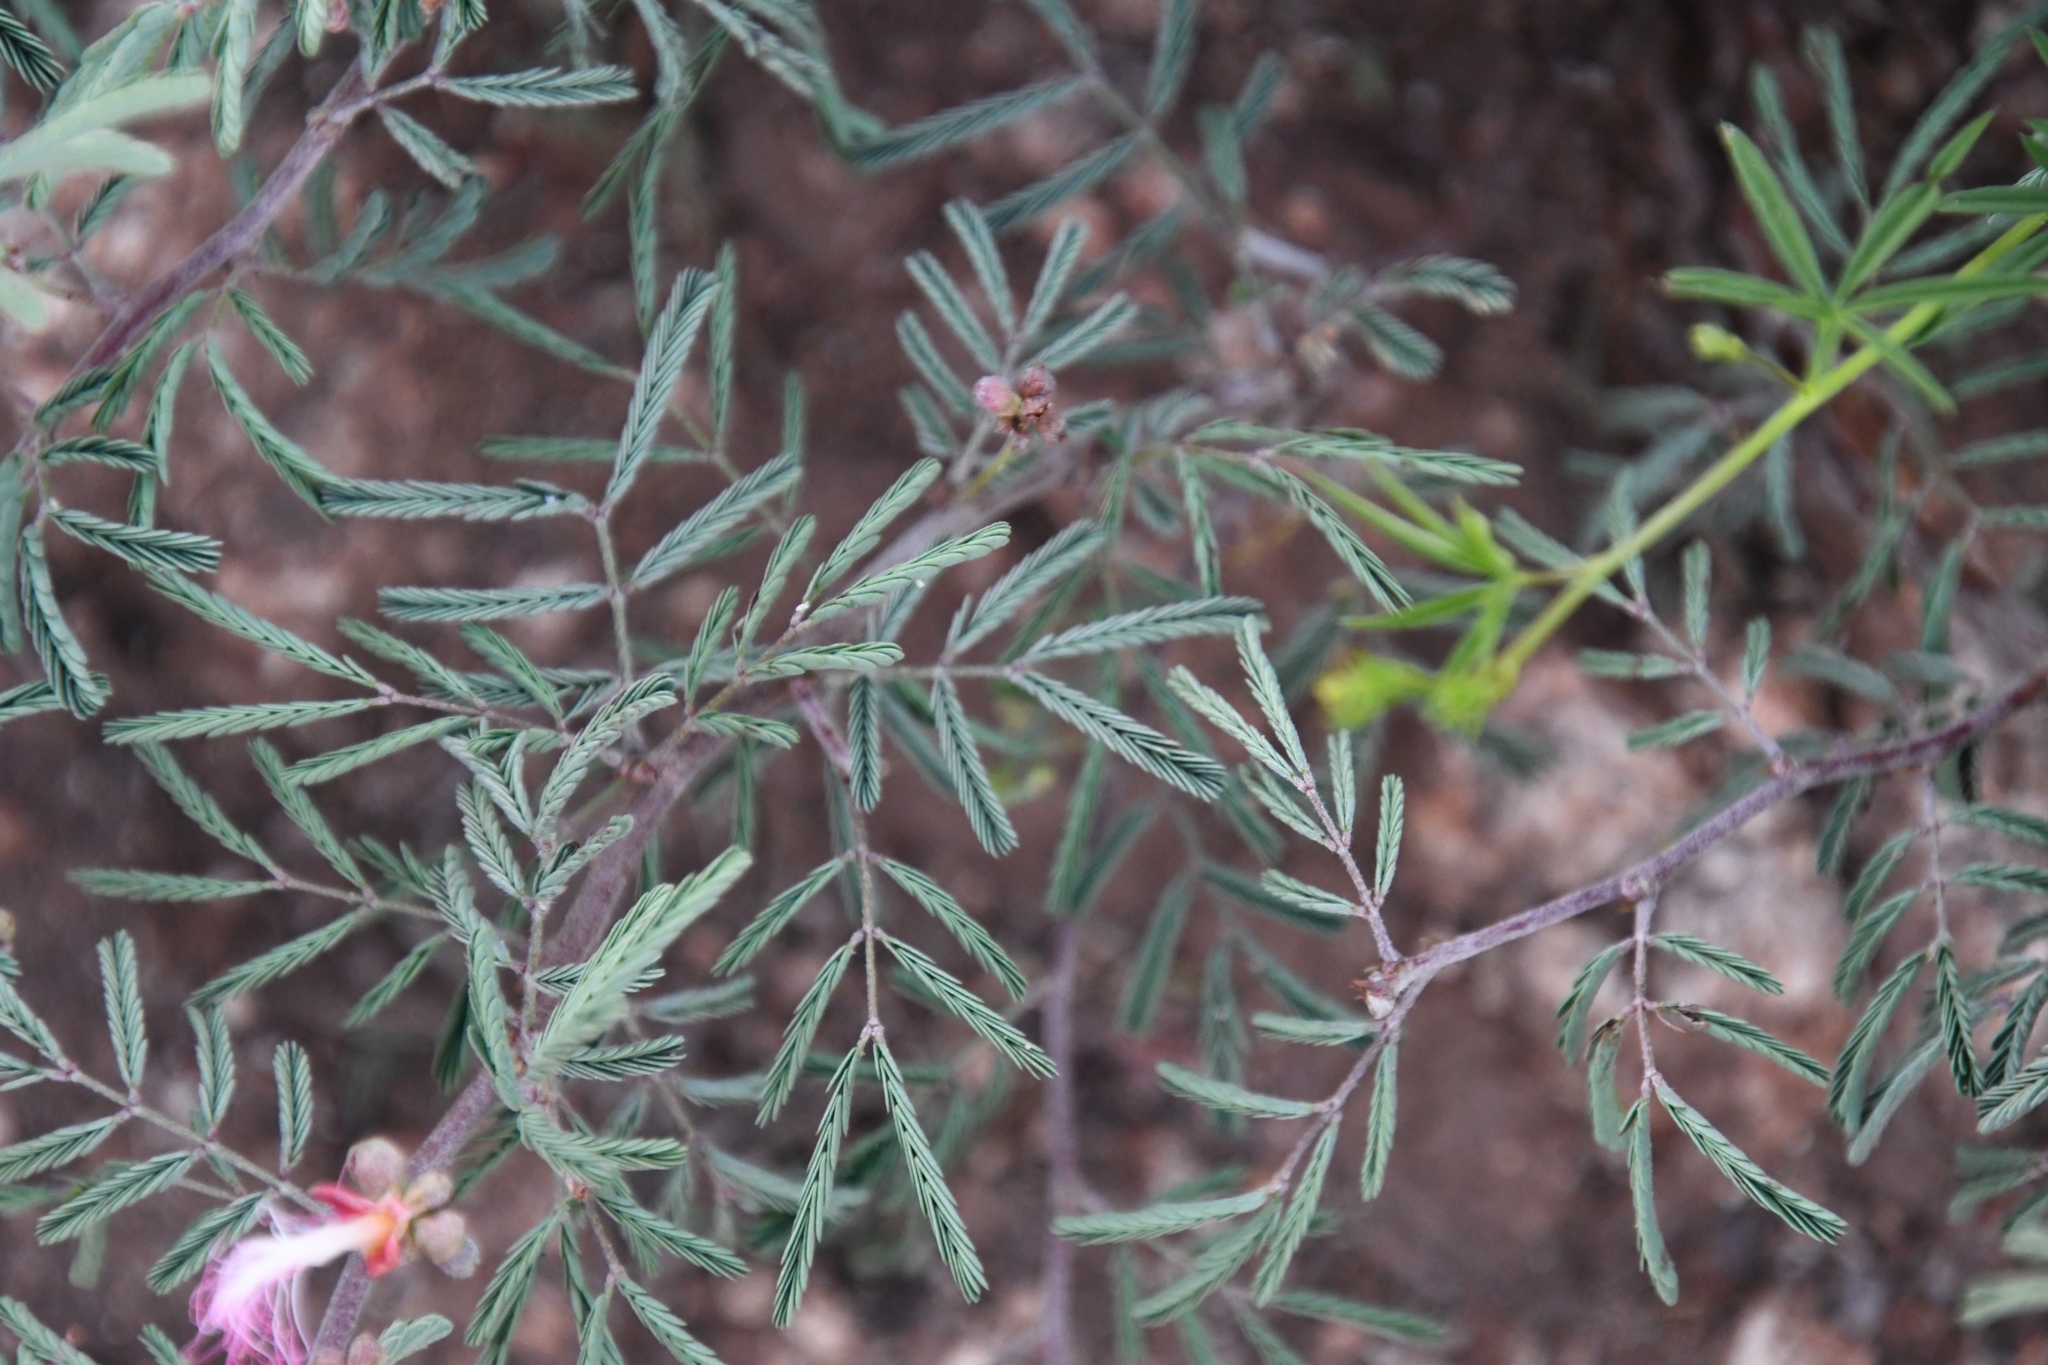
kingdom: Plantae
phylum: Tracheophyta
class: Magnoliopsida
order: Fabales
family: Fabaceae
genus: Calliandra
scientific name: Calliandra eriophylla
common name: Fairy-duster
